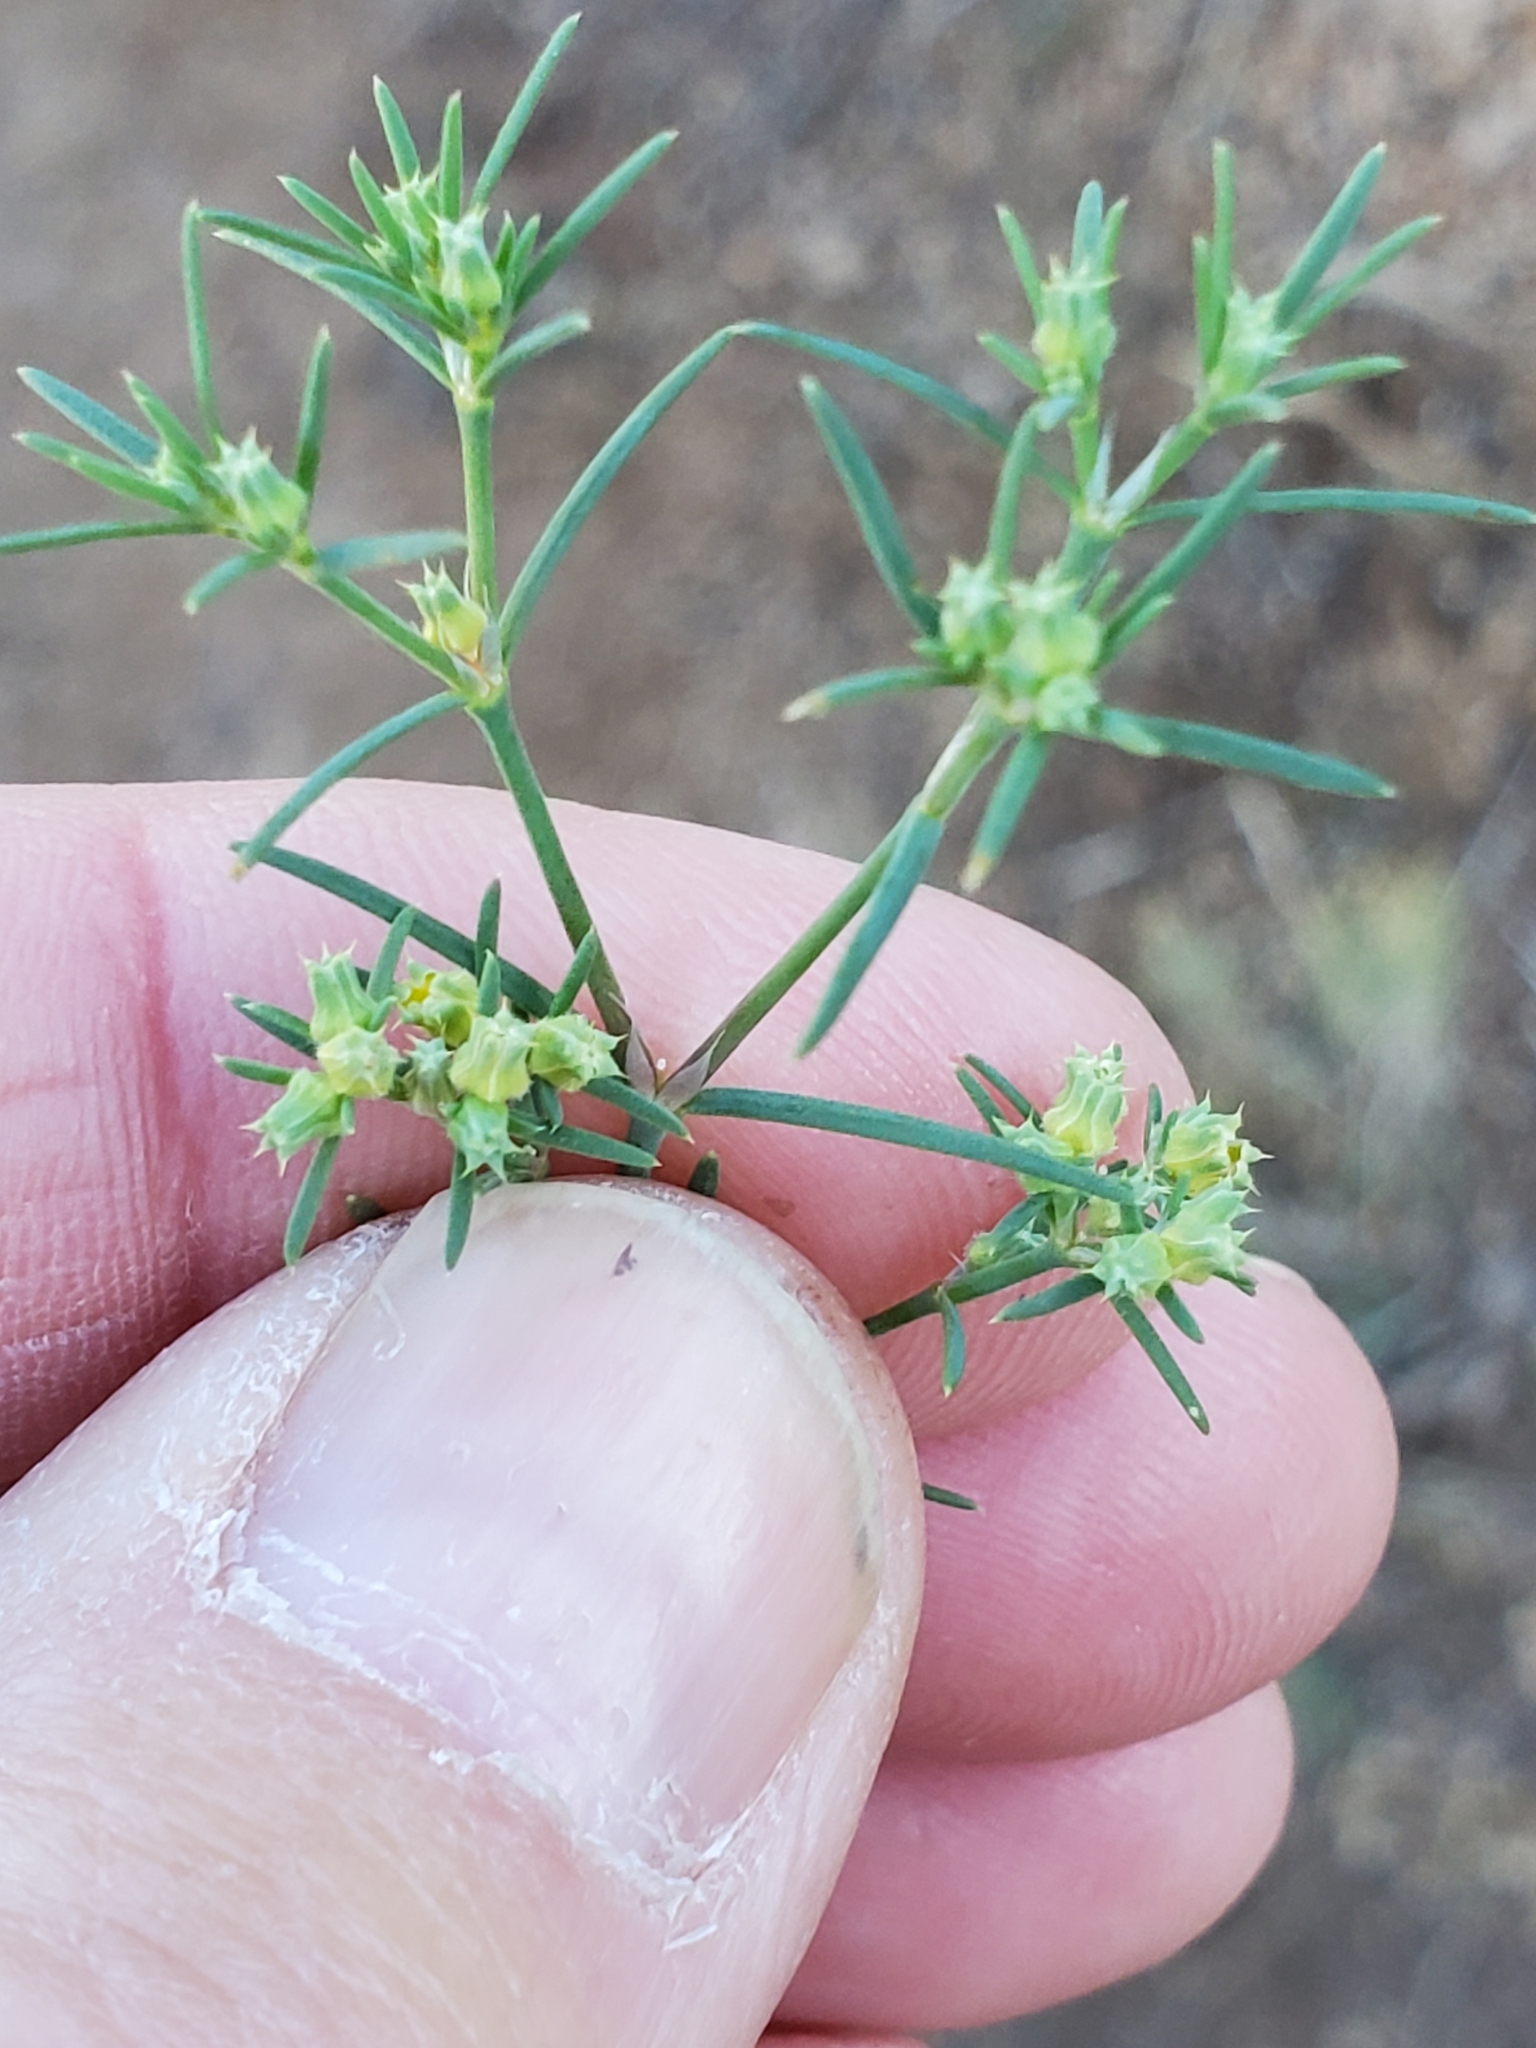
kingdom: Plantae
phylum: Tracheophyta
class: Magnoliopsida
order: Caryophyllales
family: Caryophyllaceae
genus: Paronychia
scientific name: Paronychia jamesii
